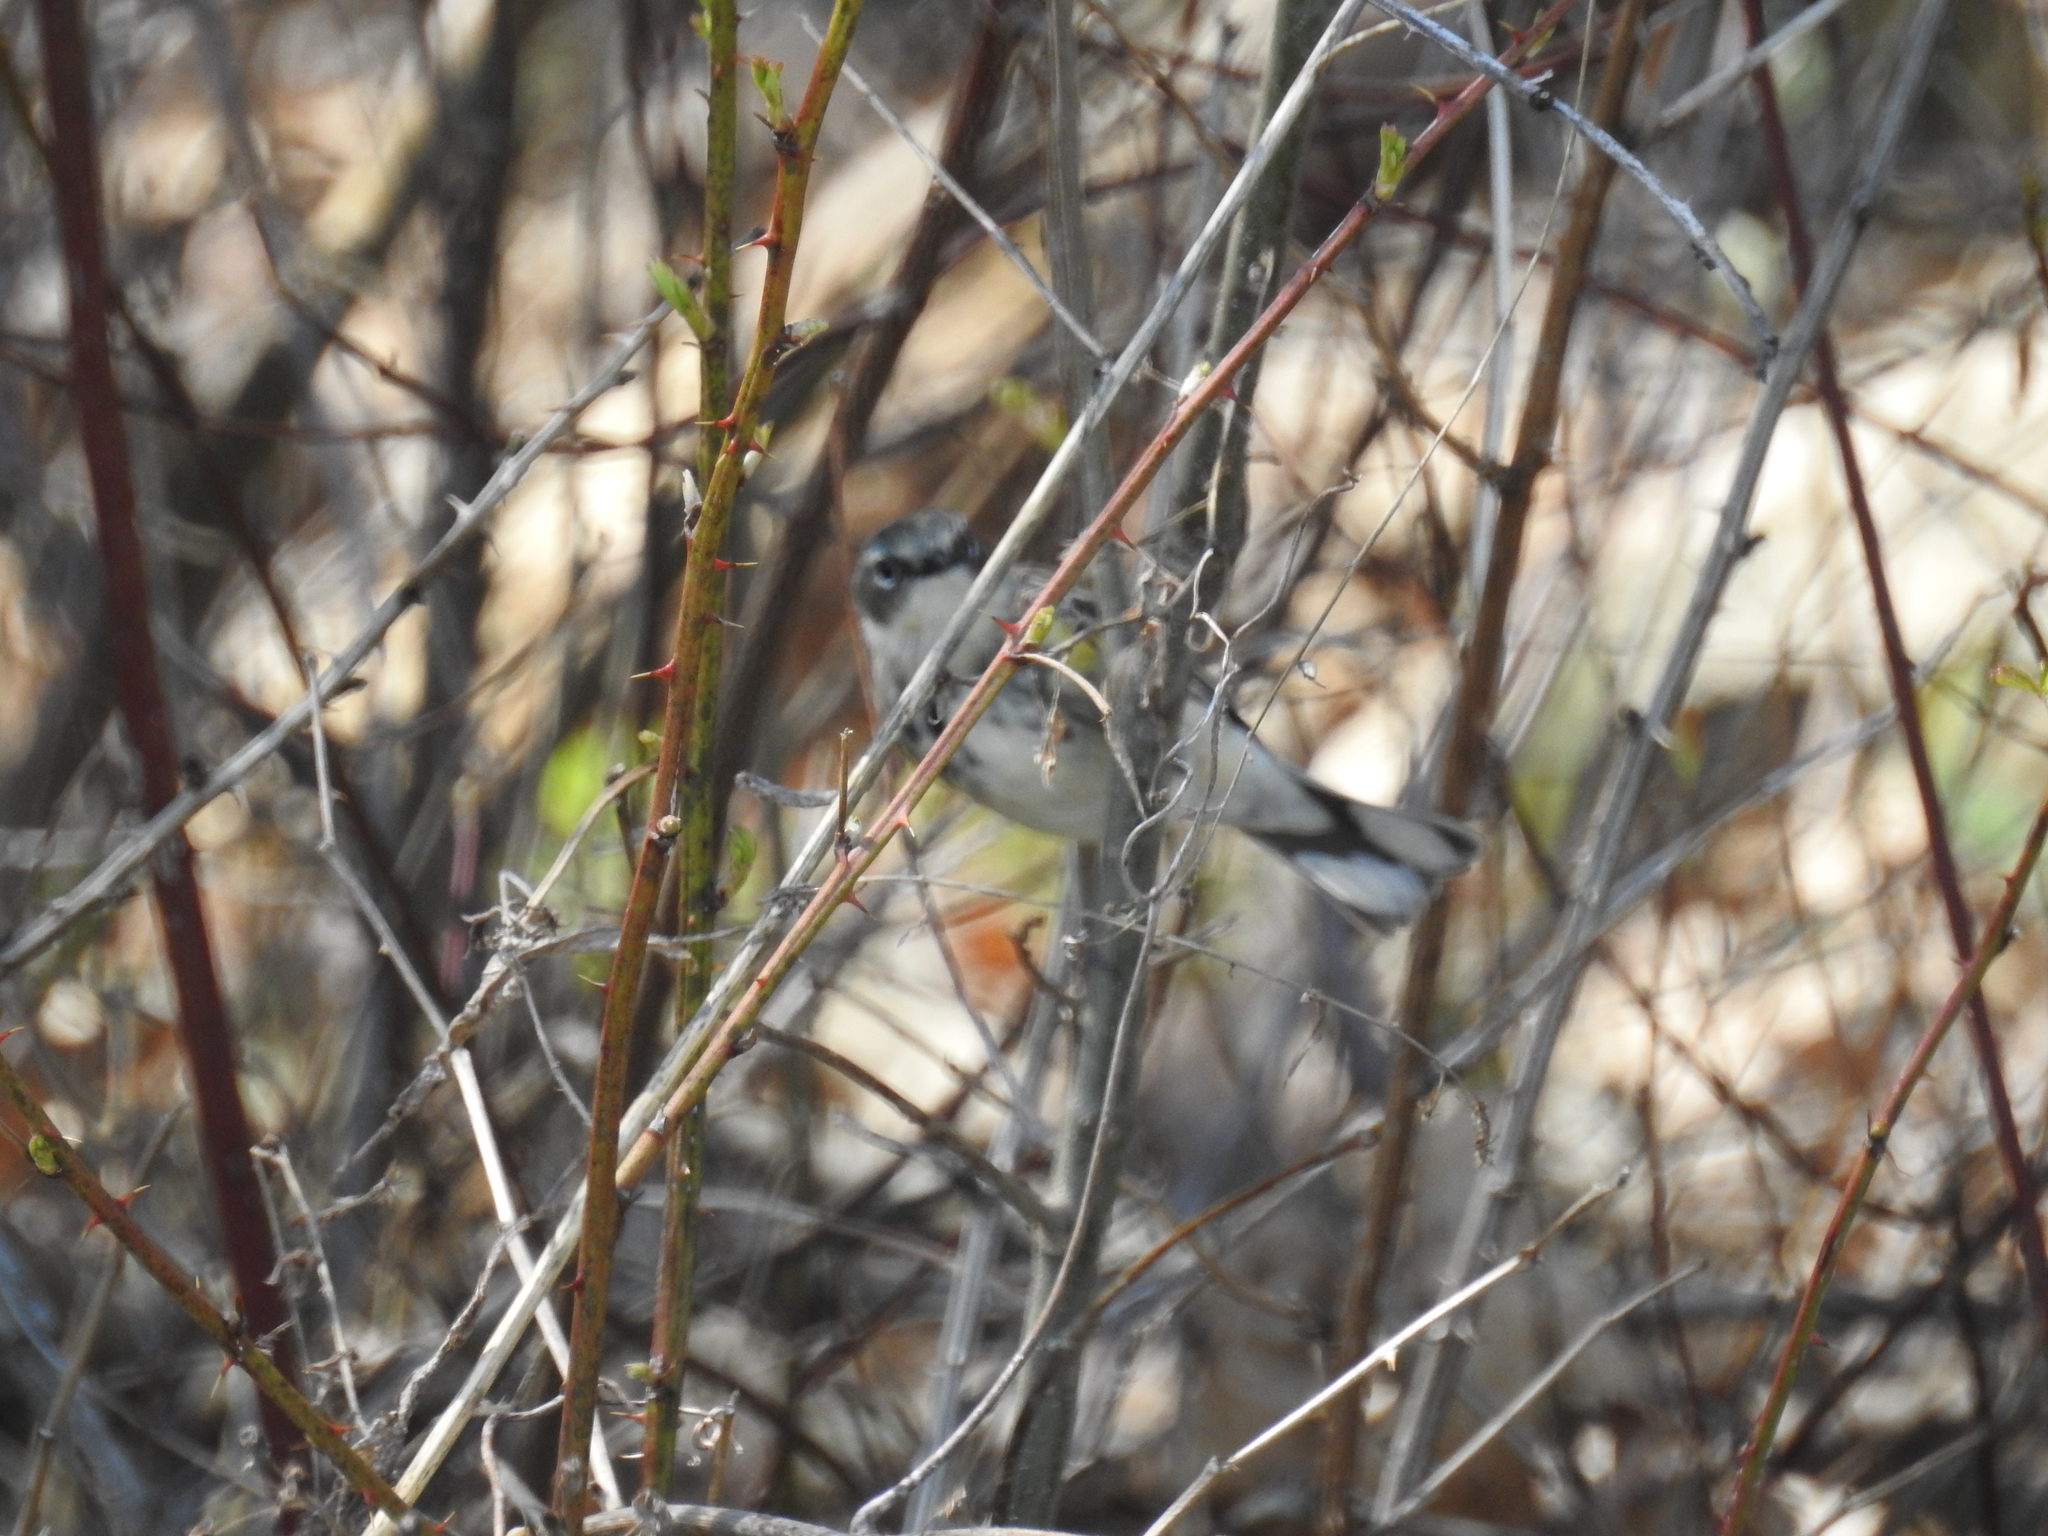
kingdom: Animalia
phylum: Chordata
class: Aves
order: Passeriformes
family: Parulidae
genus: Setophaga
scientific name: Setophaga coronata
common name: Myrtle warbler
